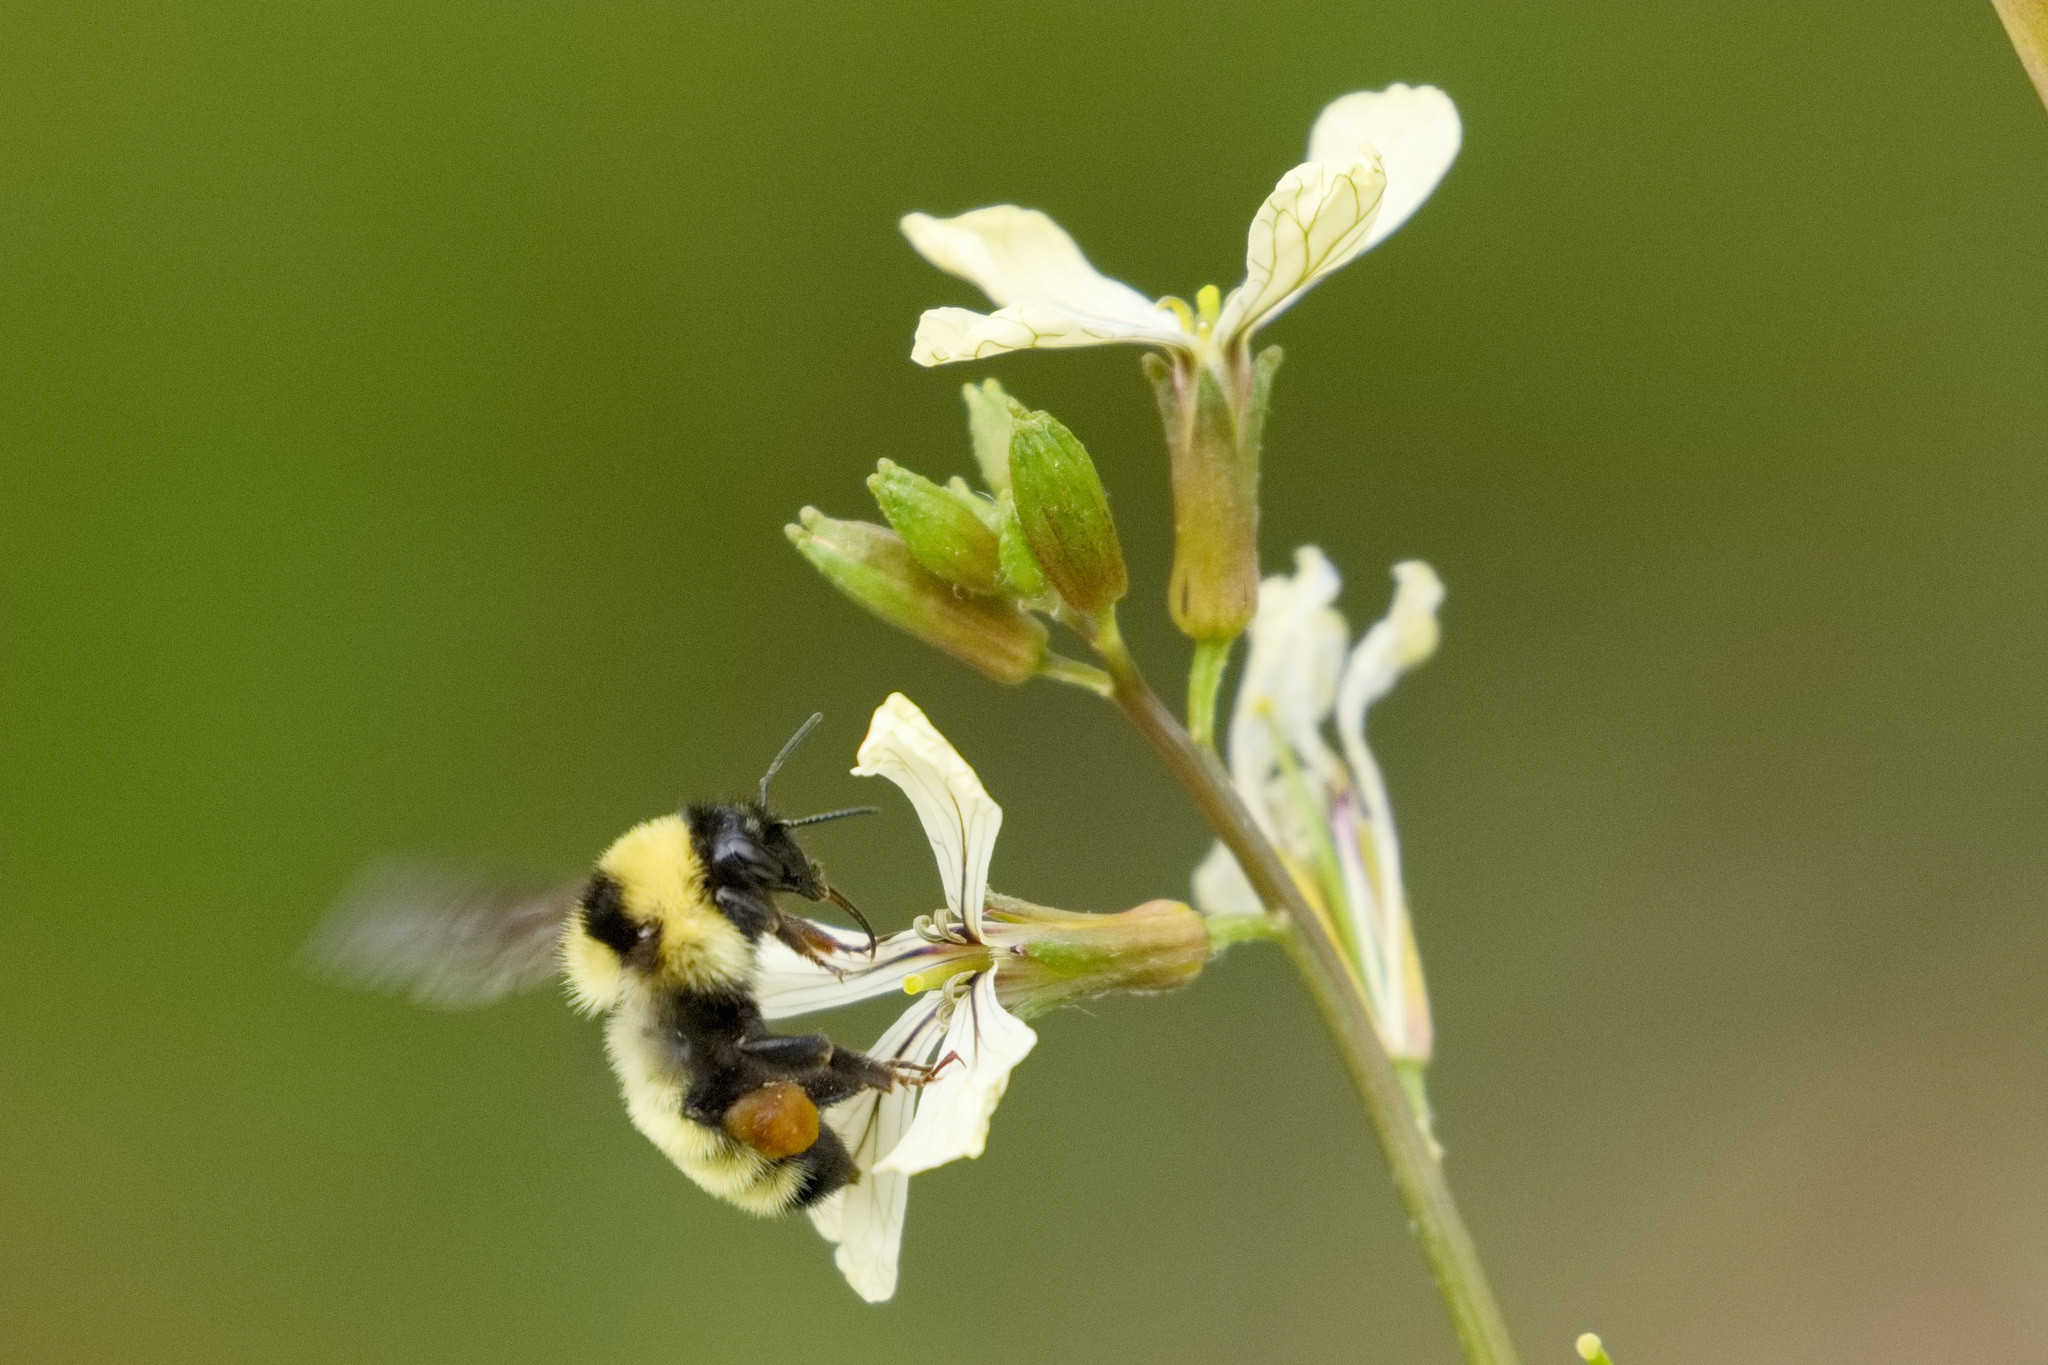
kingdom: Animalia
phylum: Arthropoda
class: Insecta
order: Hymenoptera
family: Apidae
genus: Bombus
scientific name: Bombus fervidus
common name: Yellow bumble bee
